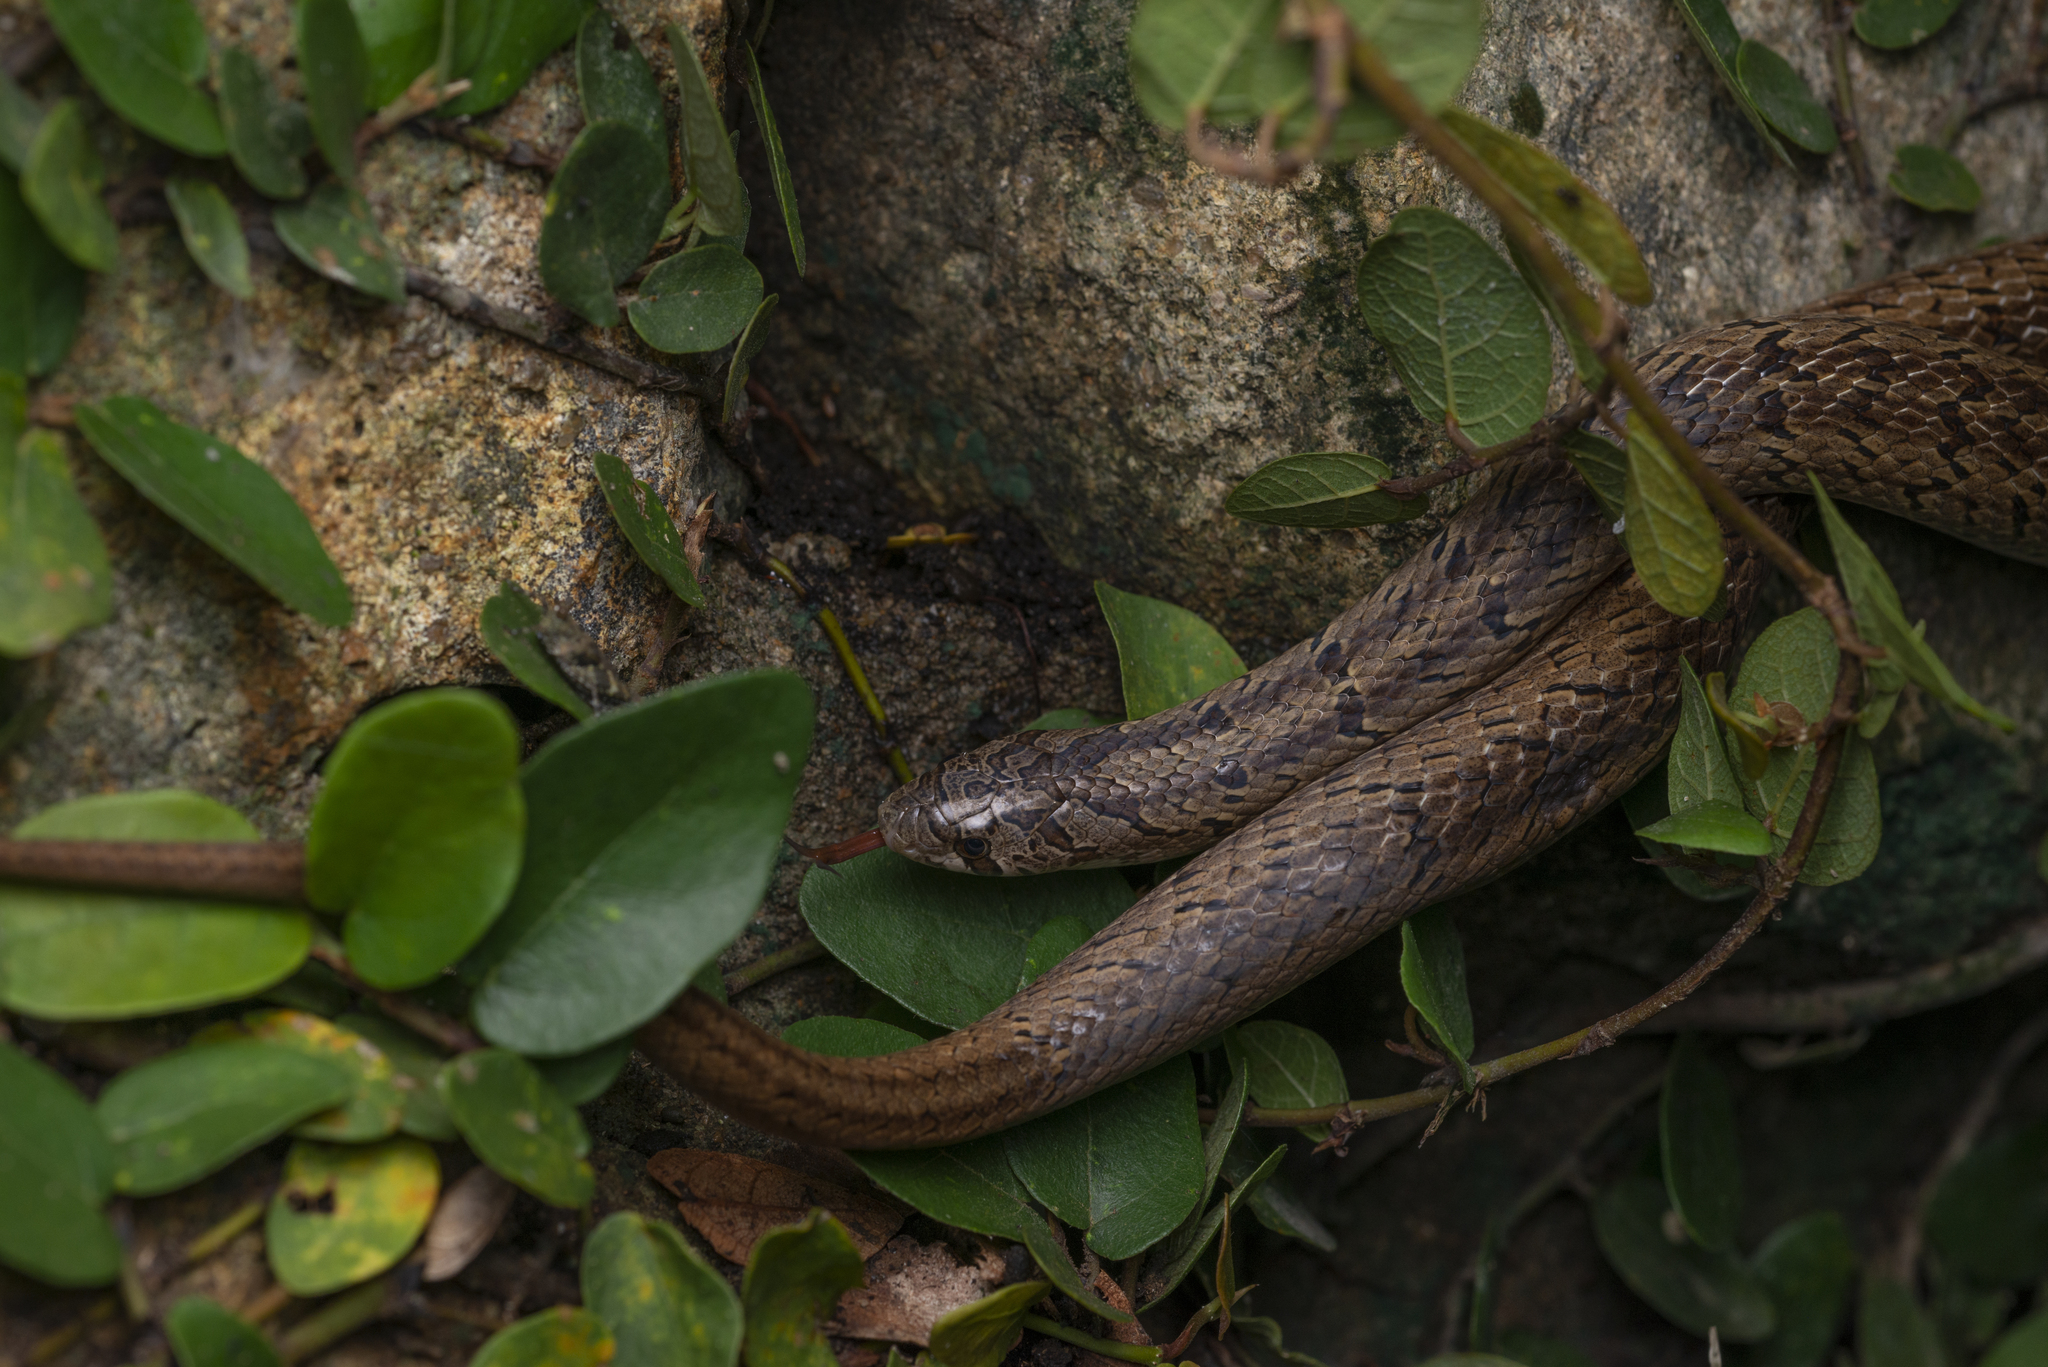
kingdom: Animalia
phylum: Chordata
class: Squamata
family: Colubridae
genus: Oligodon
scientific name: Oligodon formosanus
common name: Formosa kukri snake
